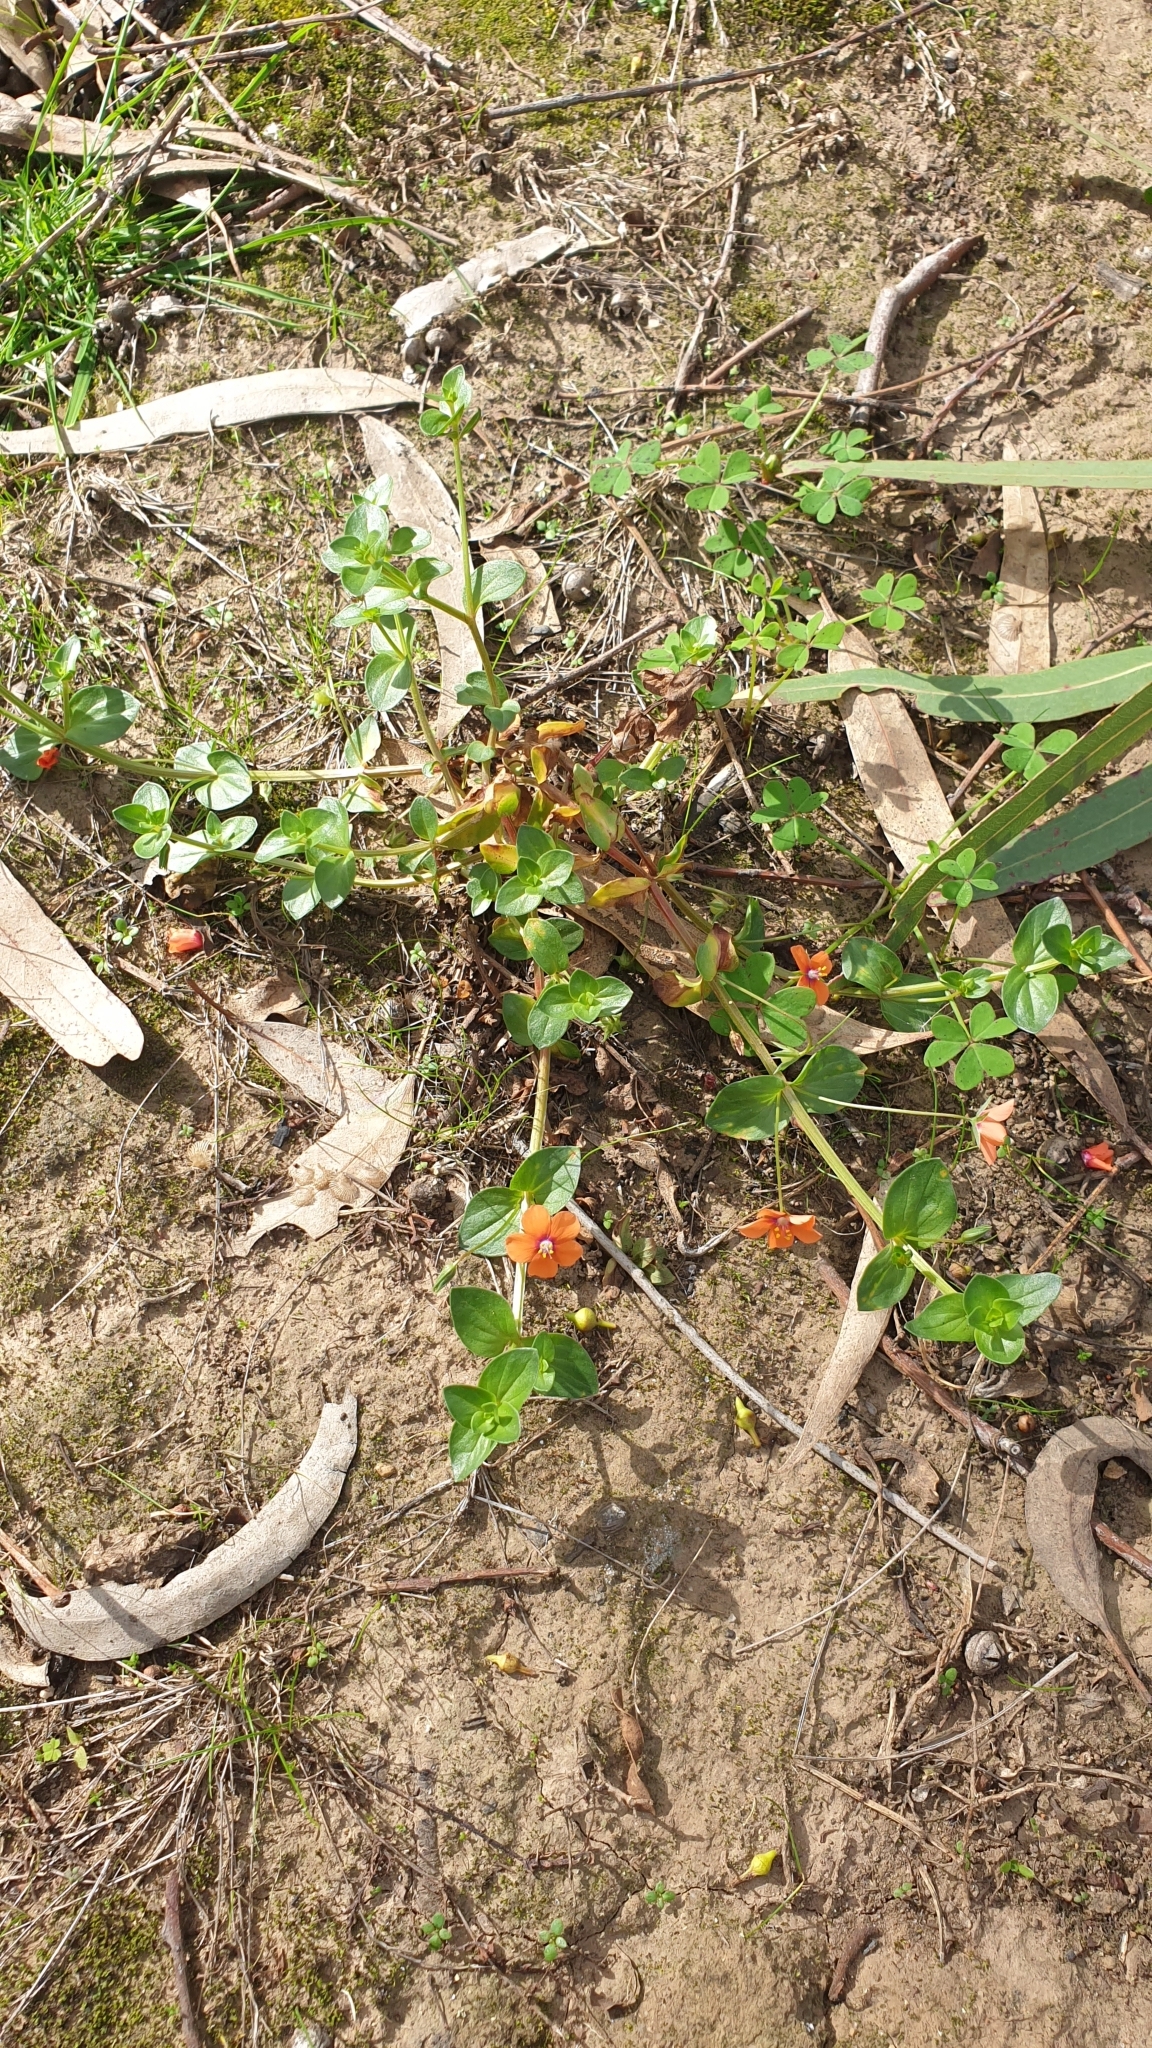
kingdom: Plantae
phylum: Tracheophyta
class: Magnoliopsida
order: Ericales
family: Primulaceae
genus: Lysimachia
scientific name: Lysimachia arvensis
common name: Scarlet pimpernel
